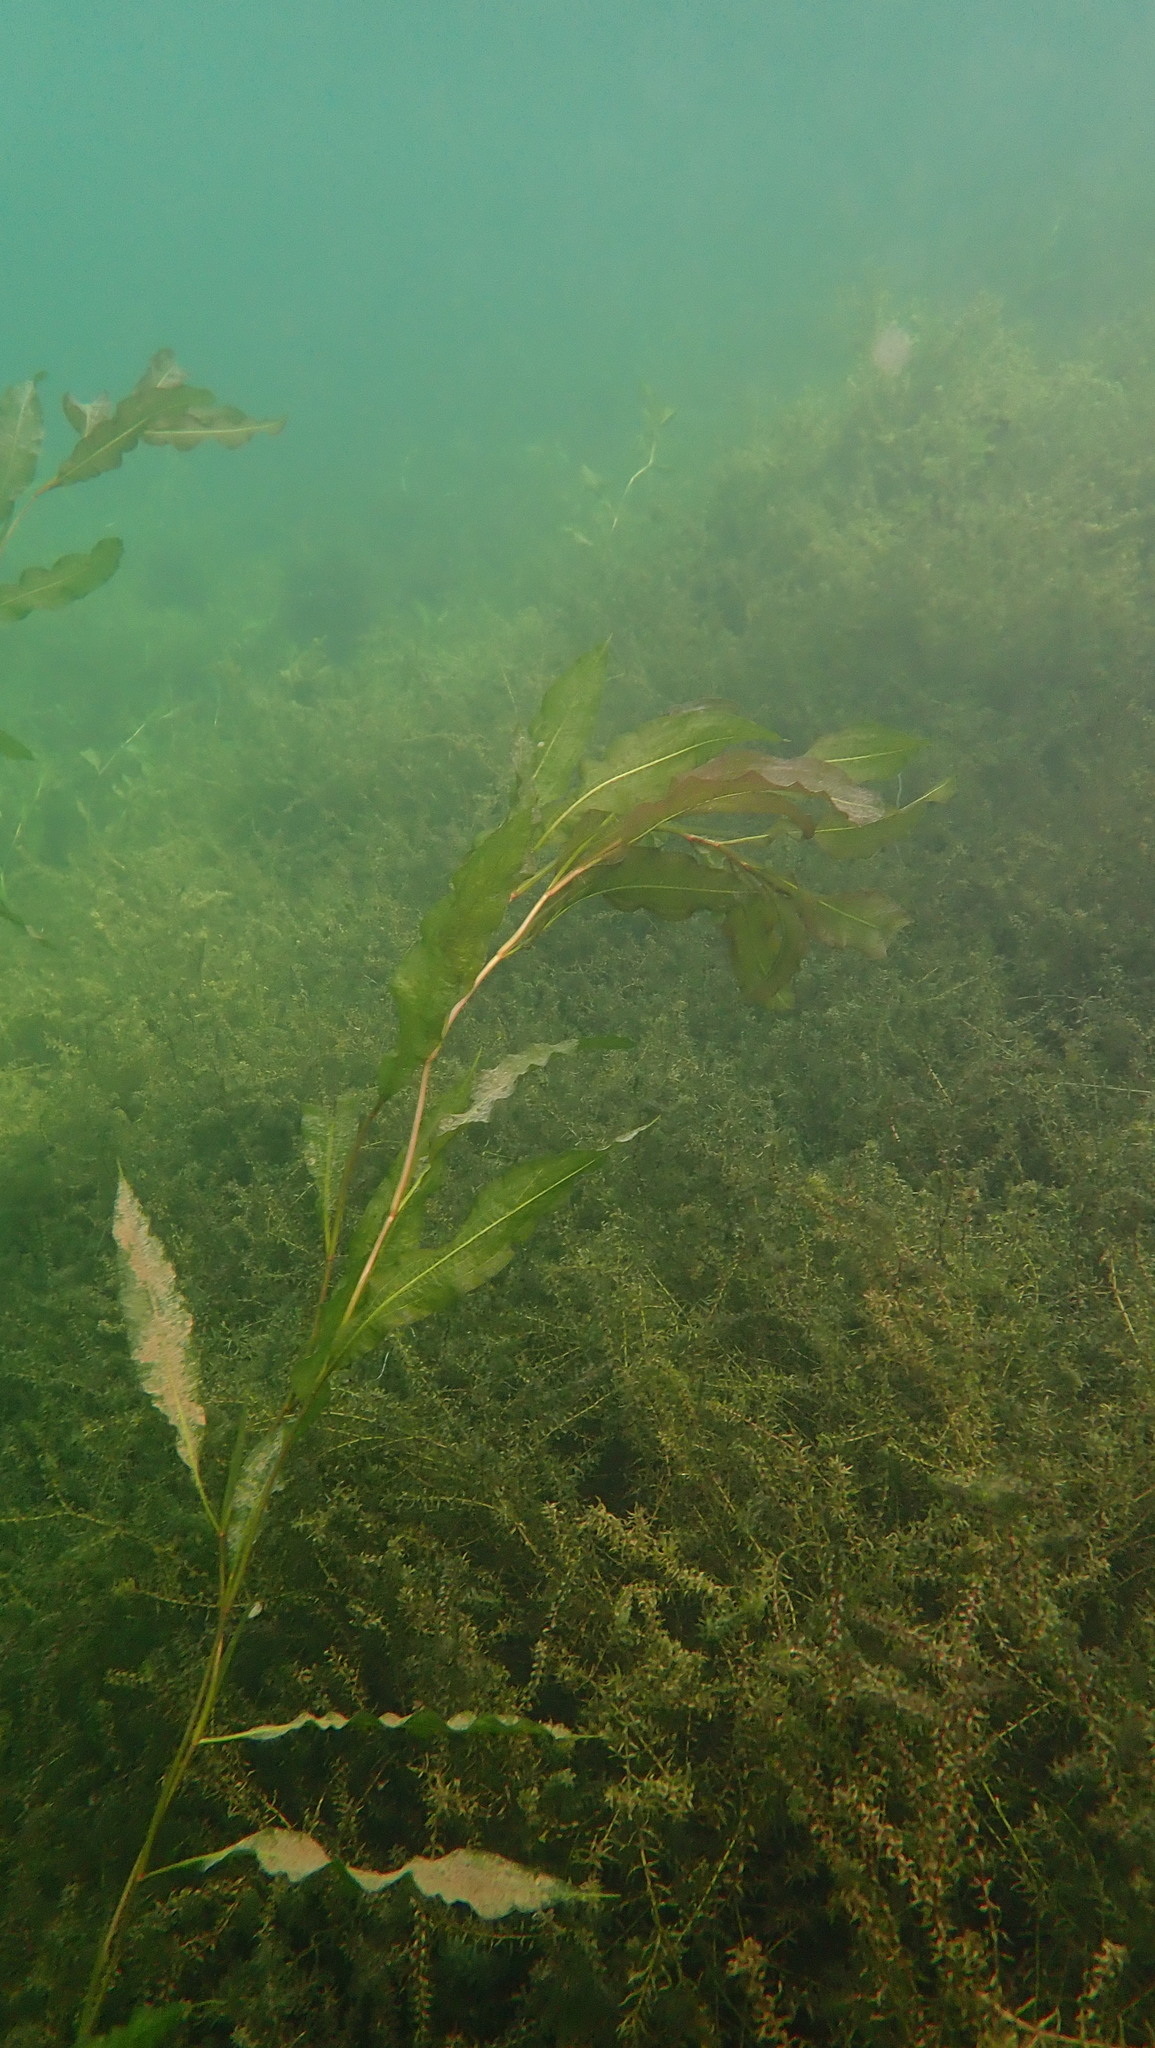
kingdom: Plantae
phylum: Tracheophyta
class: Liliopsida
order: Alismatales
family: Potamogetonaceae
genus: Potamogeton
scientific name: Potamogeton lucens
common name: Shining pondweed
